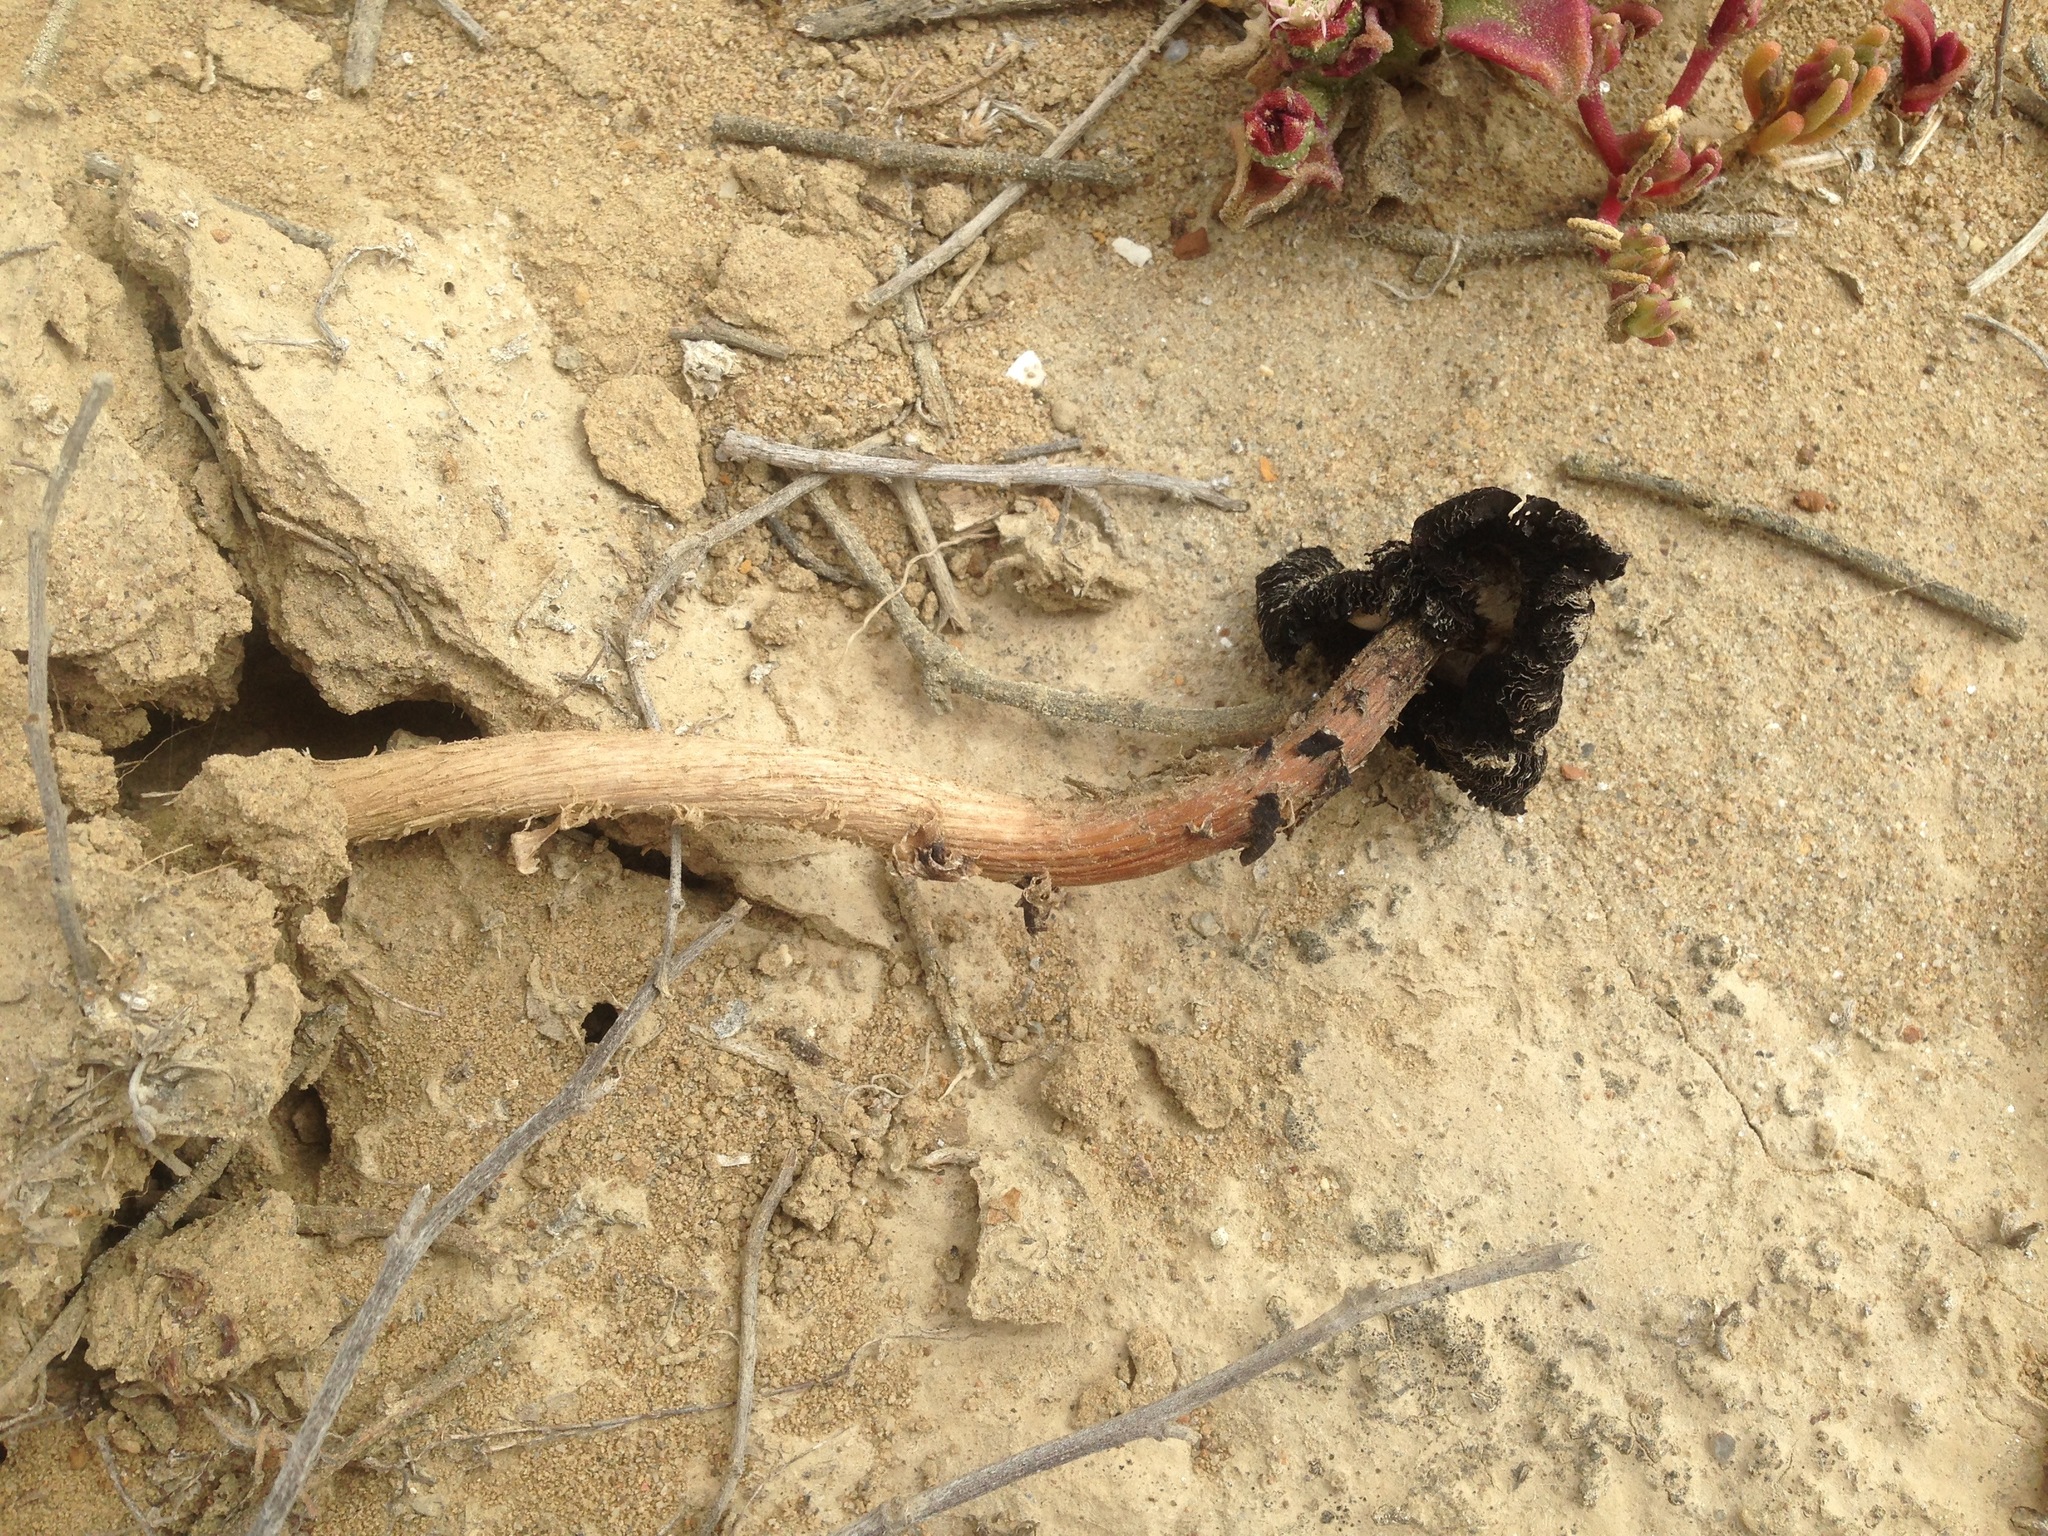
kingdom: Fungi
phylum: Basidiomycota
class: Agaricomycetes
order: Agaricales
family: Agaricaceae
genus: Montagnea
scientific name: Montagnea arenaria
